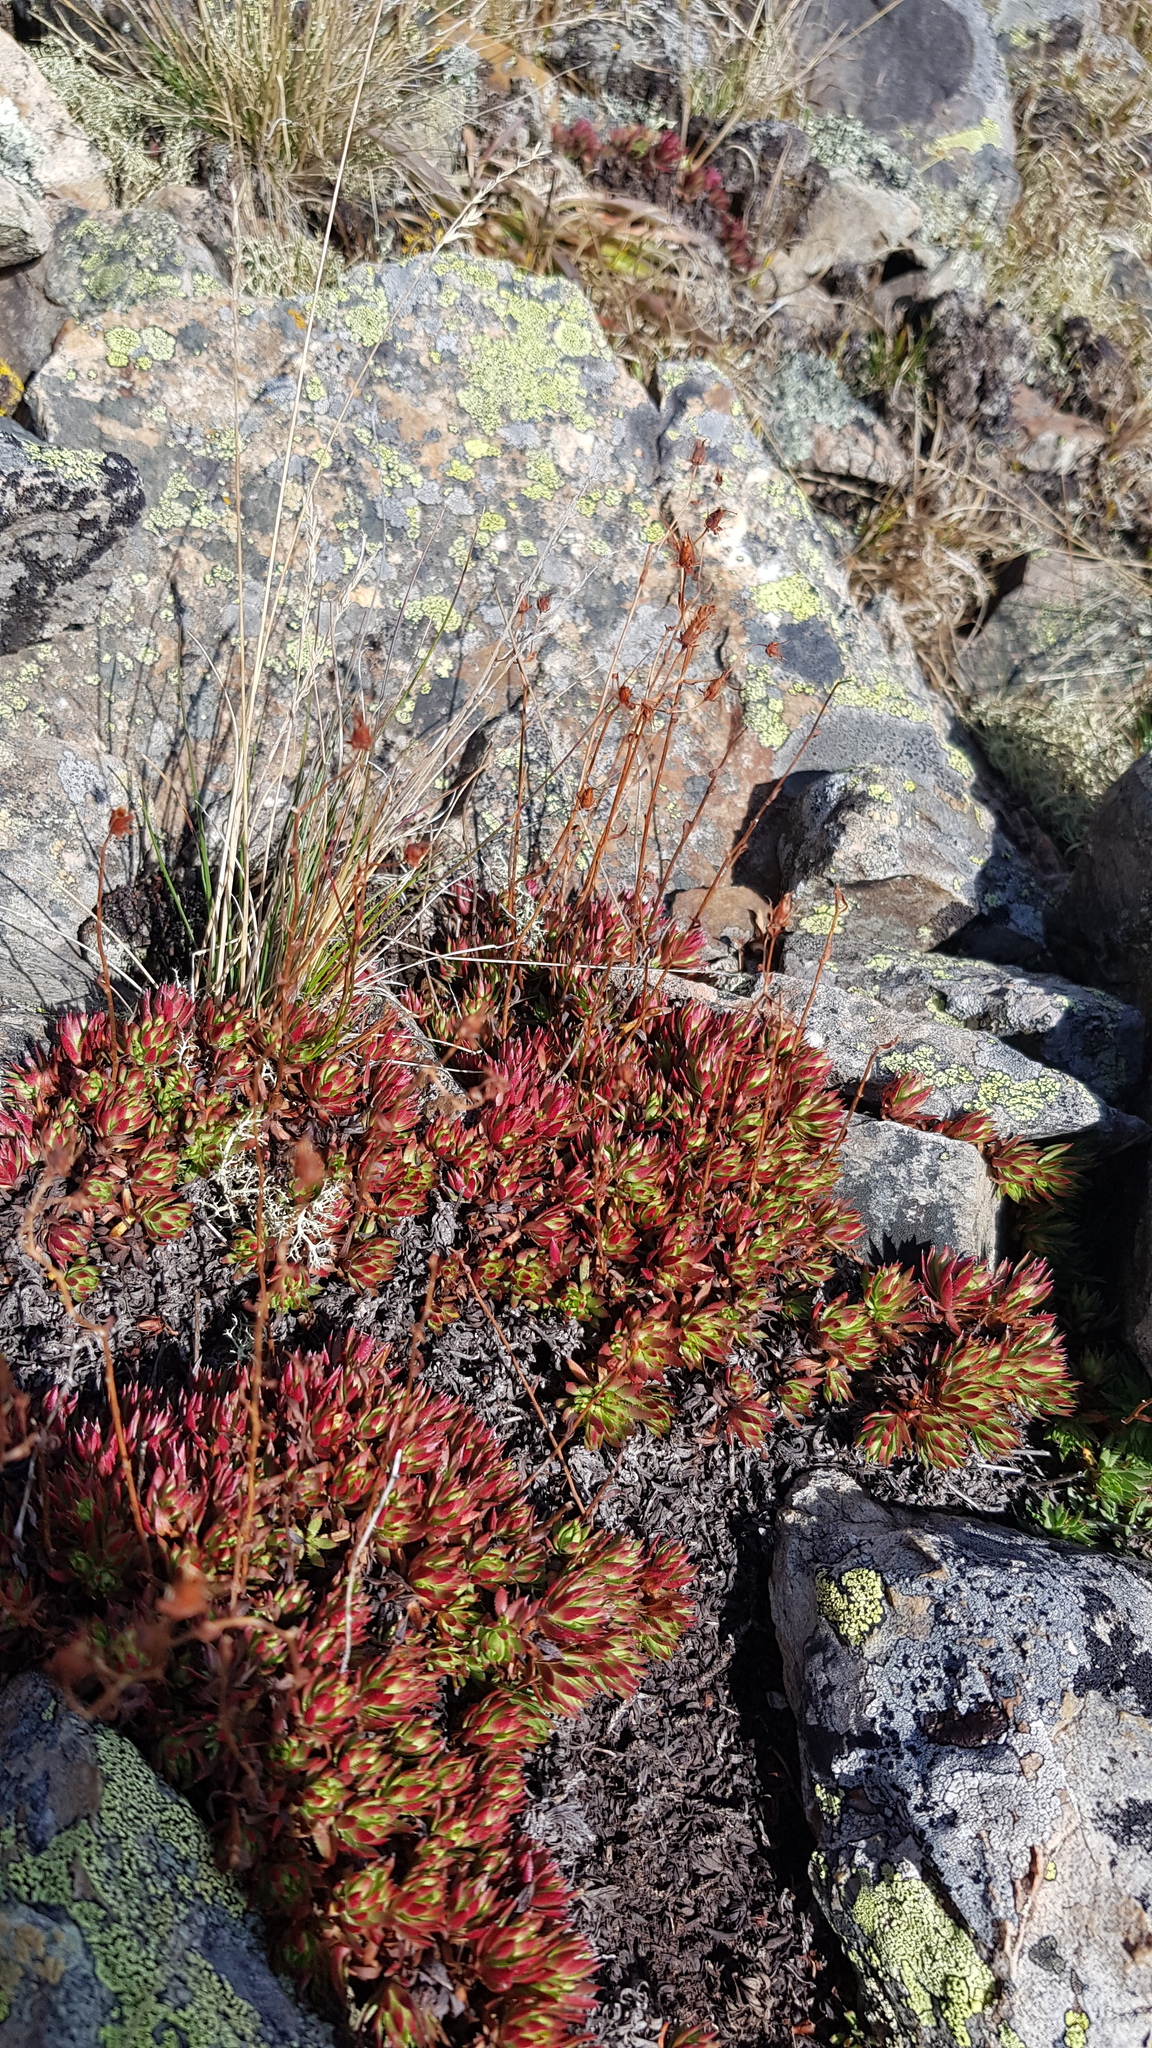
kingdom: Plantae
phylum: Tracheophyta
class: Magnoliopsida
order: Saxifragales
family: Saxifragaceae
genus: Saxifraga
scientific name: Saxifraga bronchialis
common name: Matted saxifrage
